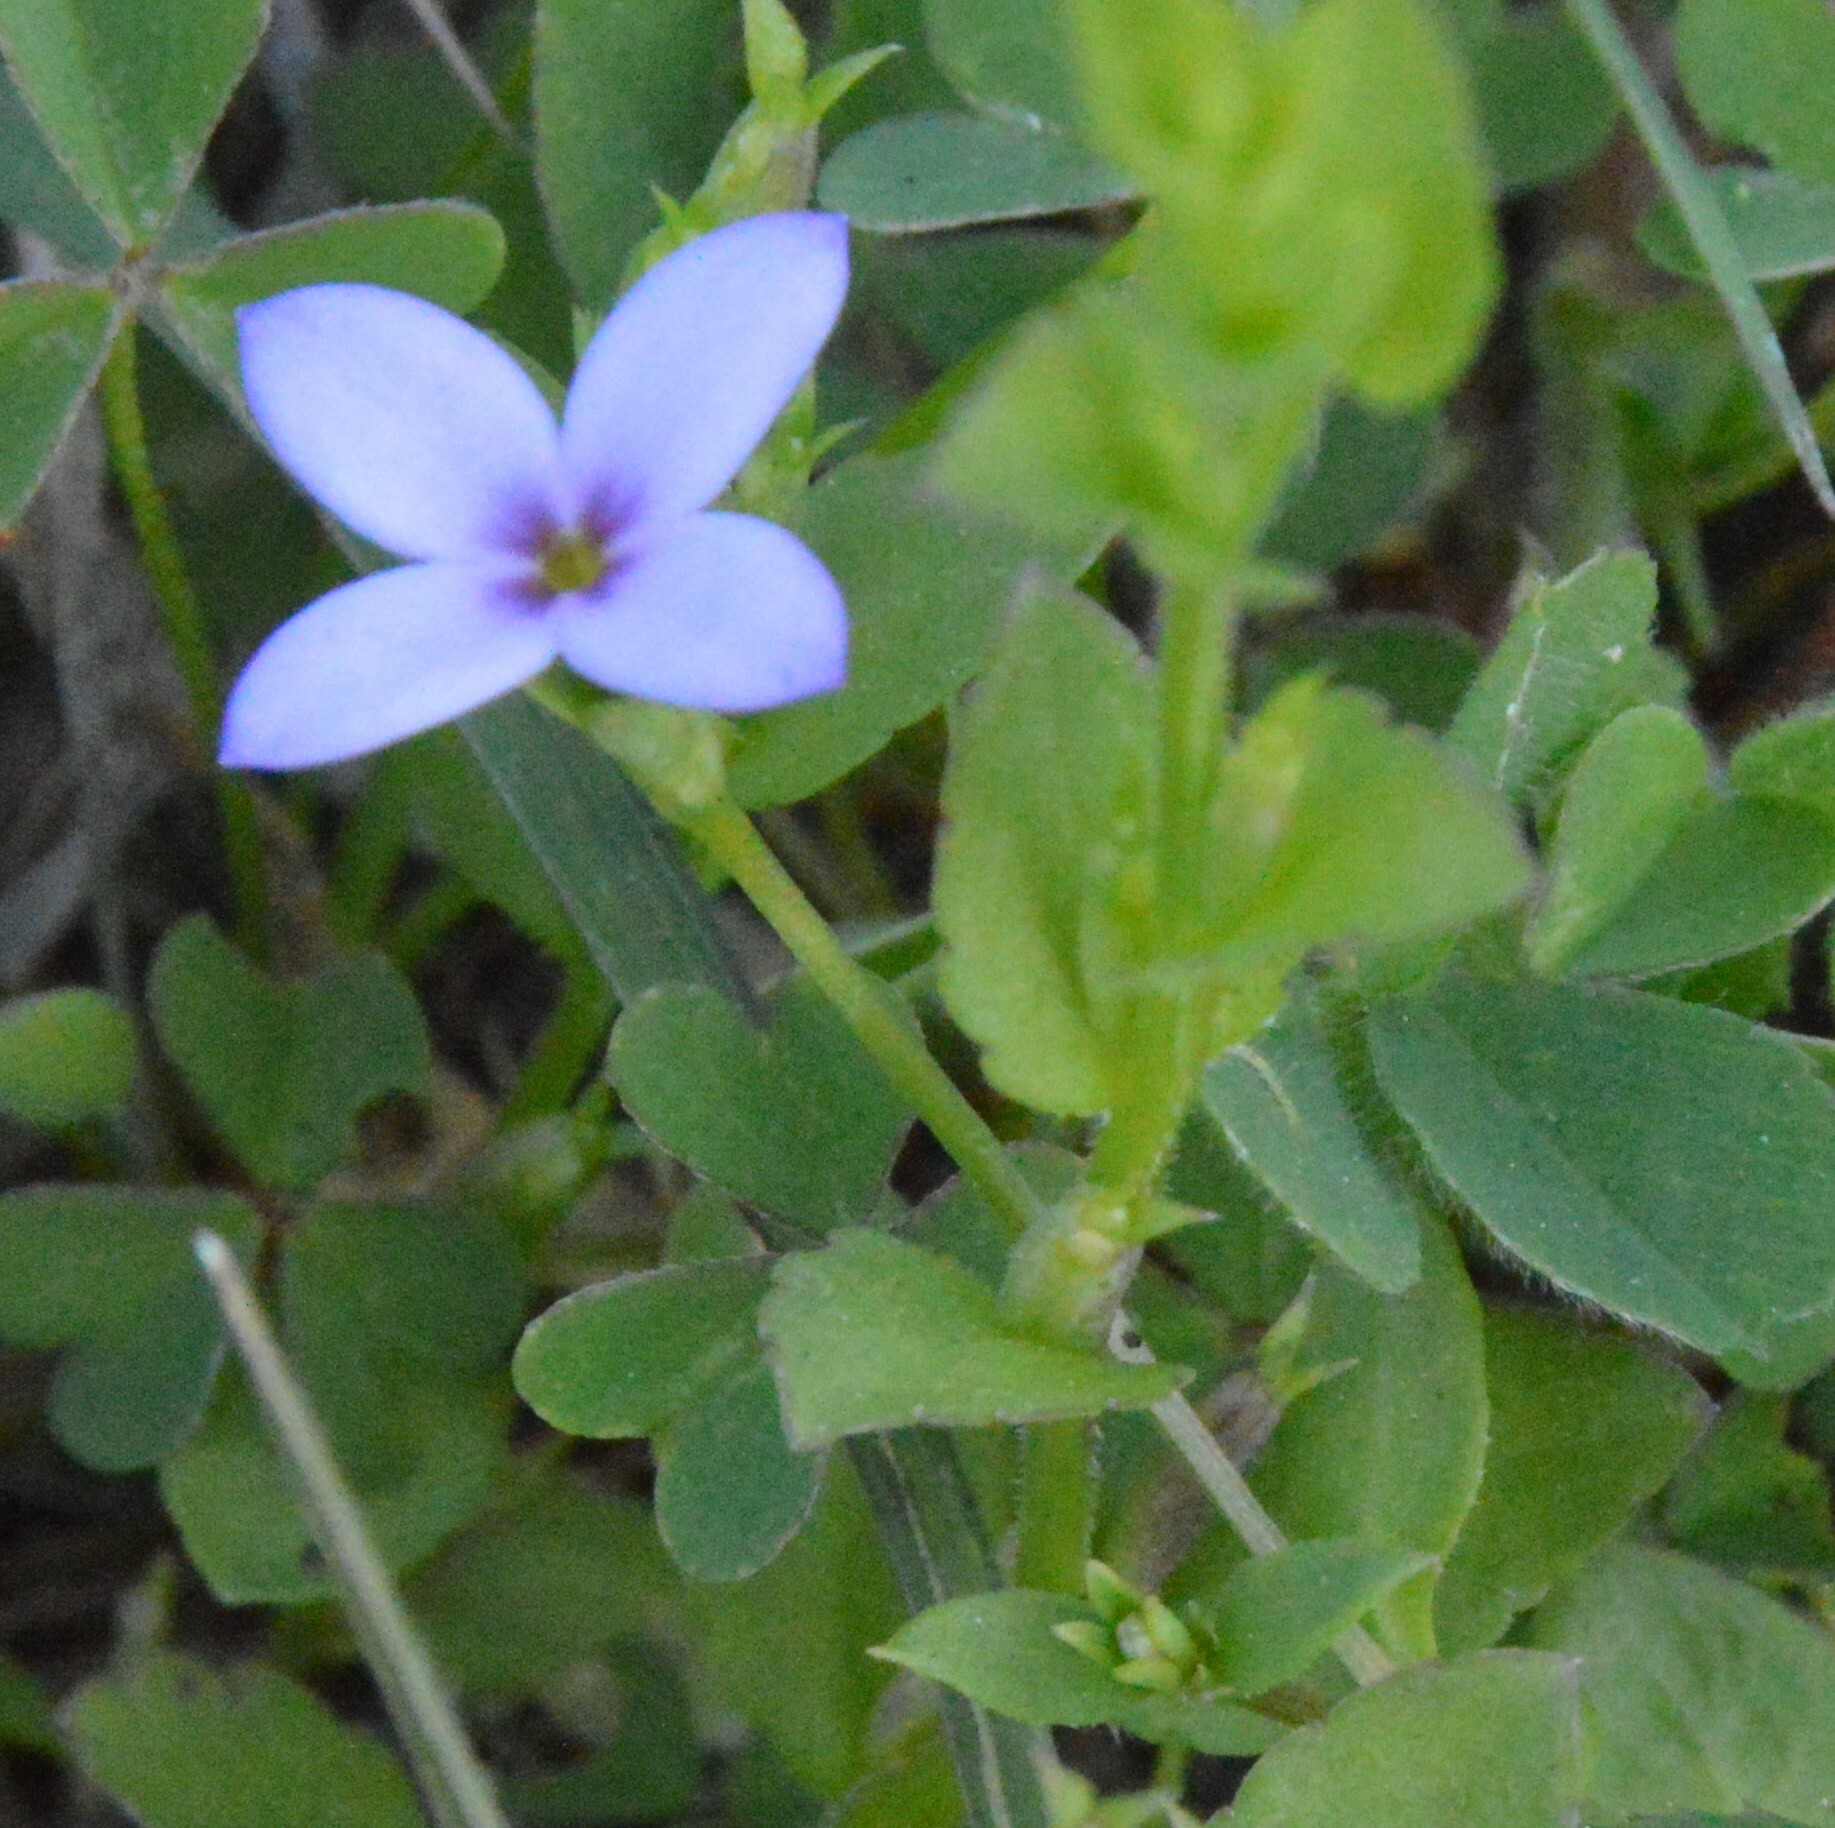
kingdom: Plantae
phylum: Tracheophyta
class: Magnoliopsida
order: Gentianales
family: Rubiaceae
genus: Houstonia
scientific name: Houstonia pusilla
